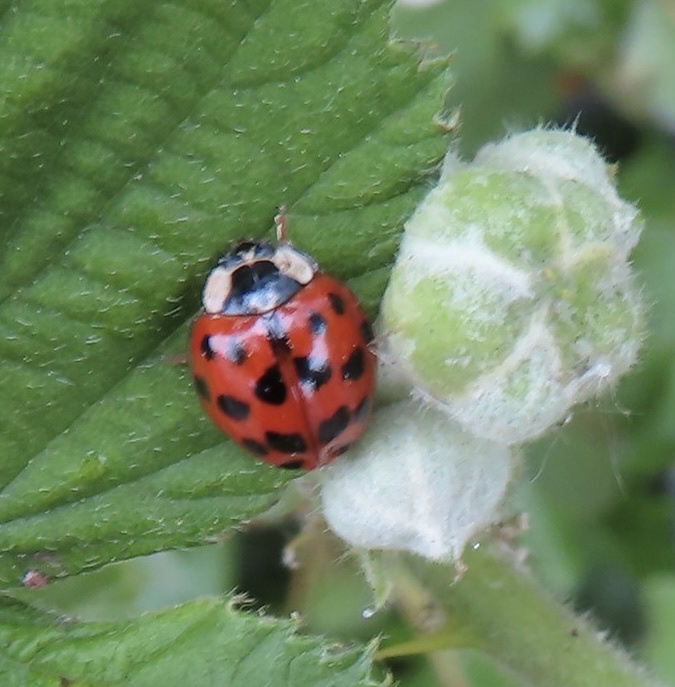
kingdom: Animalia
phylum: Arthropoda
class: Insecta
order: Coleoptera
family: Coccinellidae
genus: Harmonia
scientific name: Harmonia axyridis
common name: Harlequin ladybird
